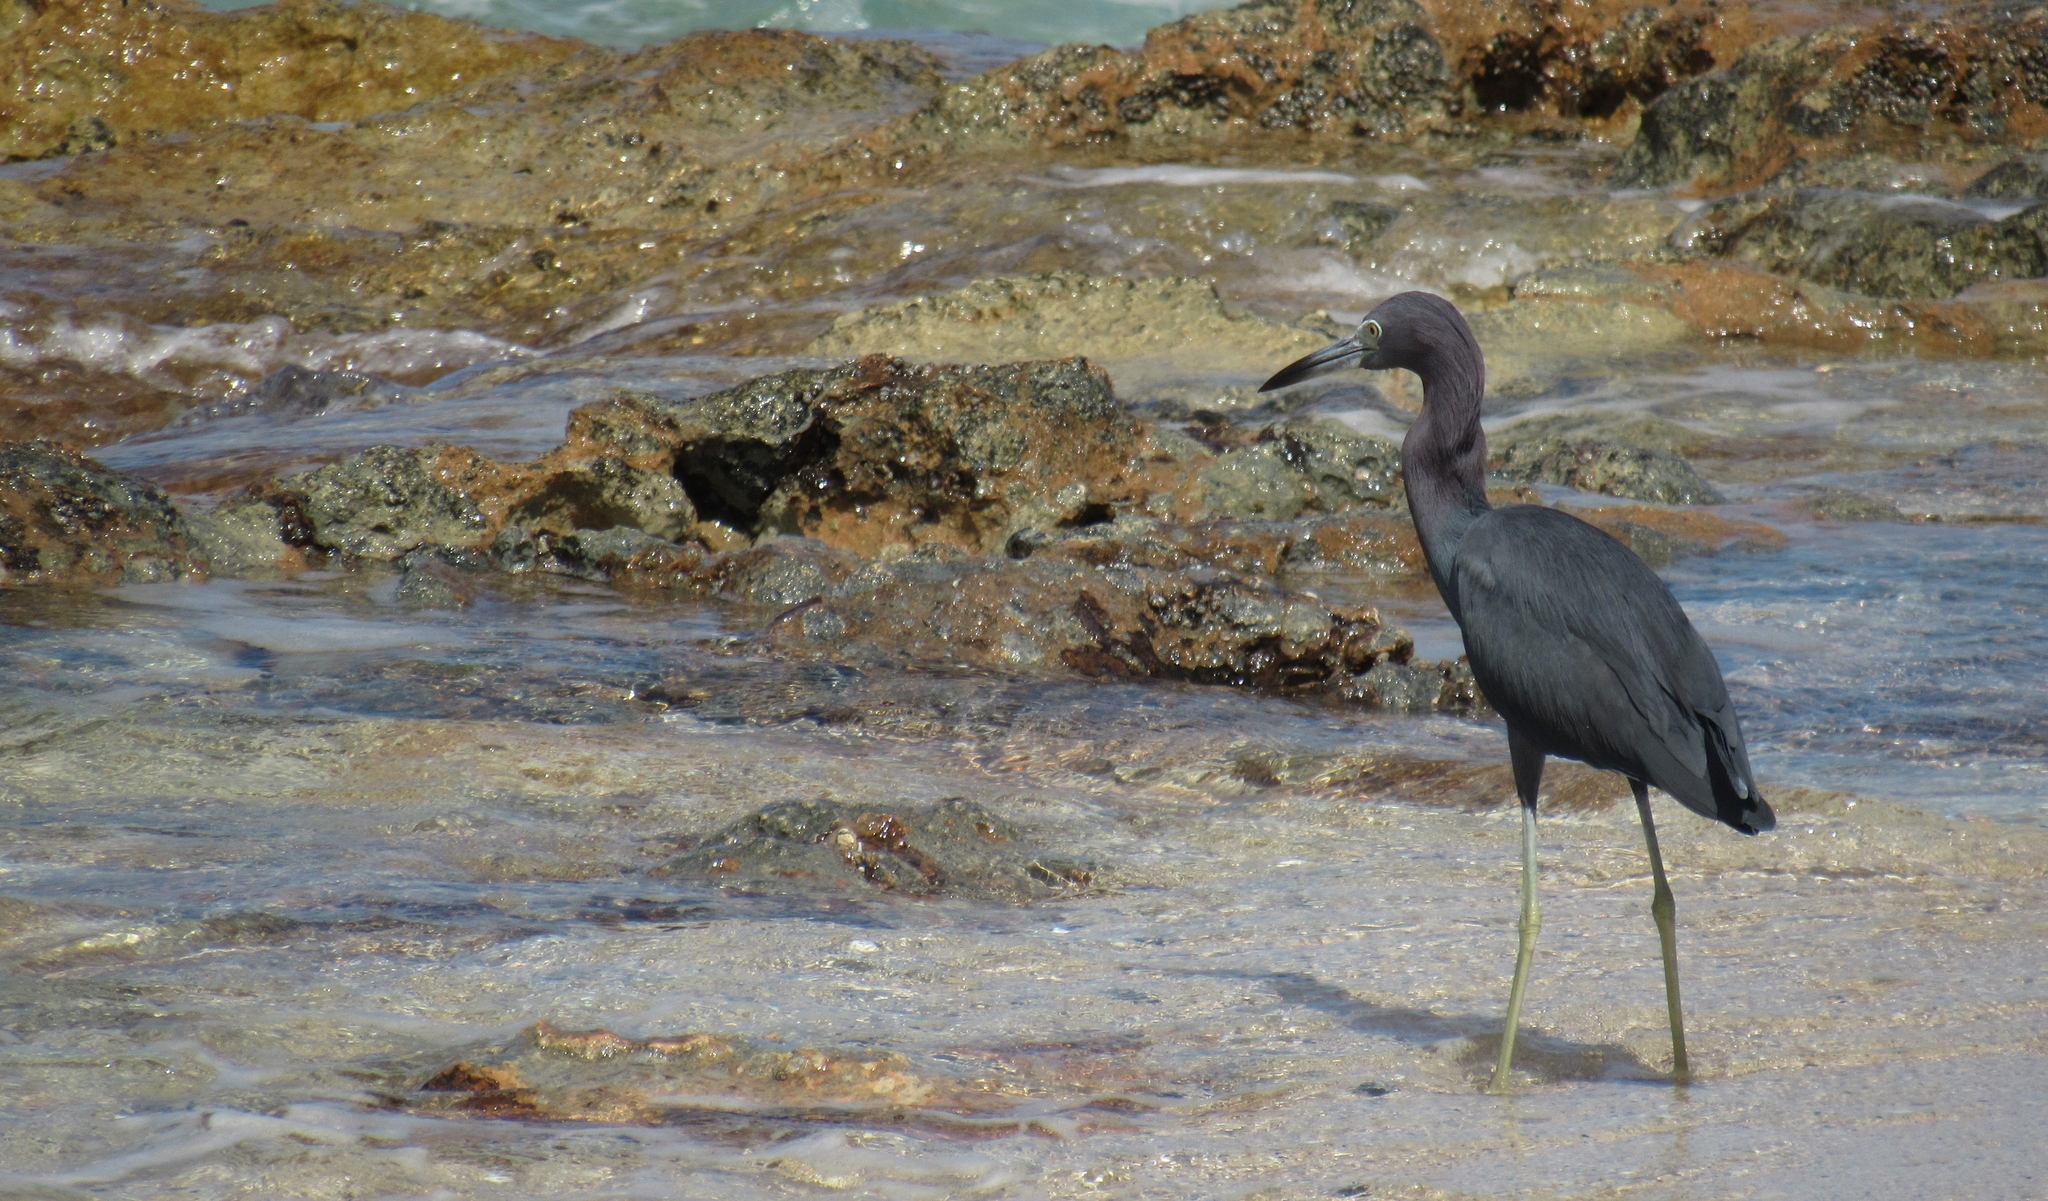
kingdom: Animalia
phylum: Chordata
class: Aves
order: Pelecaniformes
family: Ardeidae
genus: Egretta
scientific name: Egretta caerulea
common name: Little blue heron
